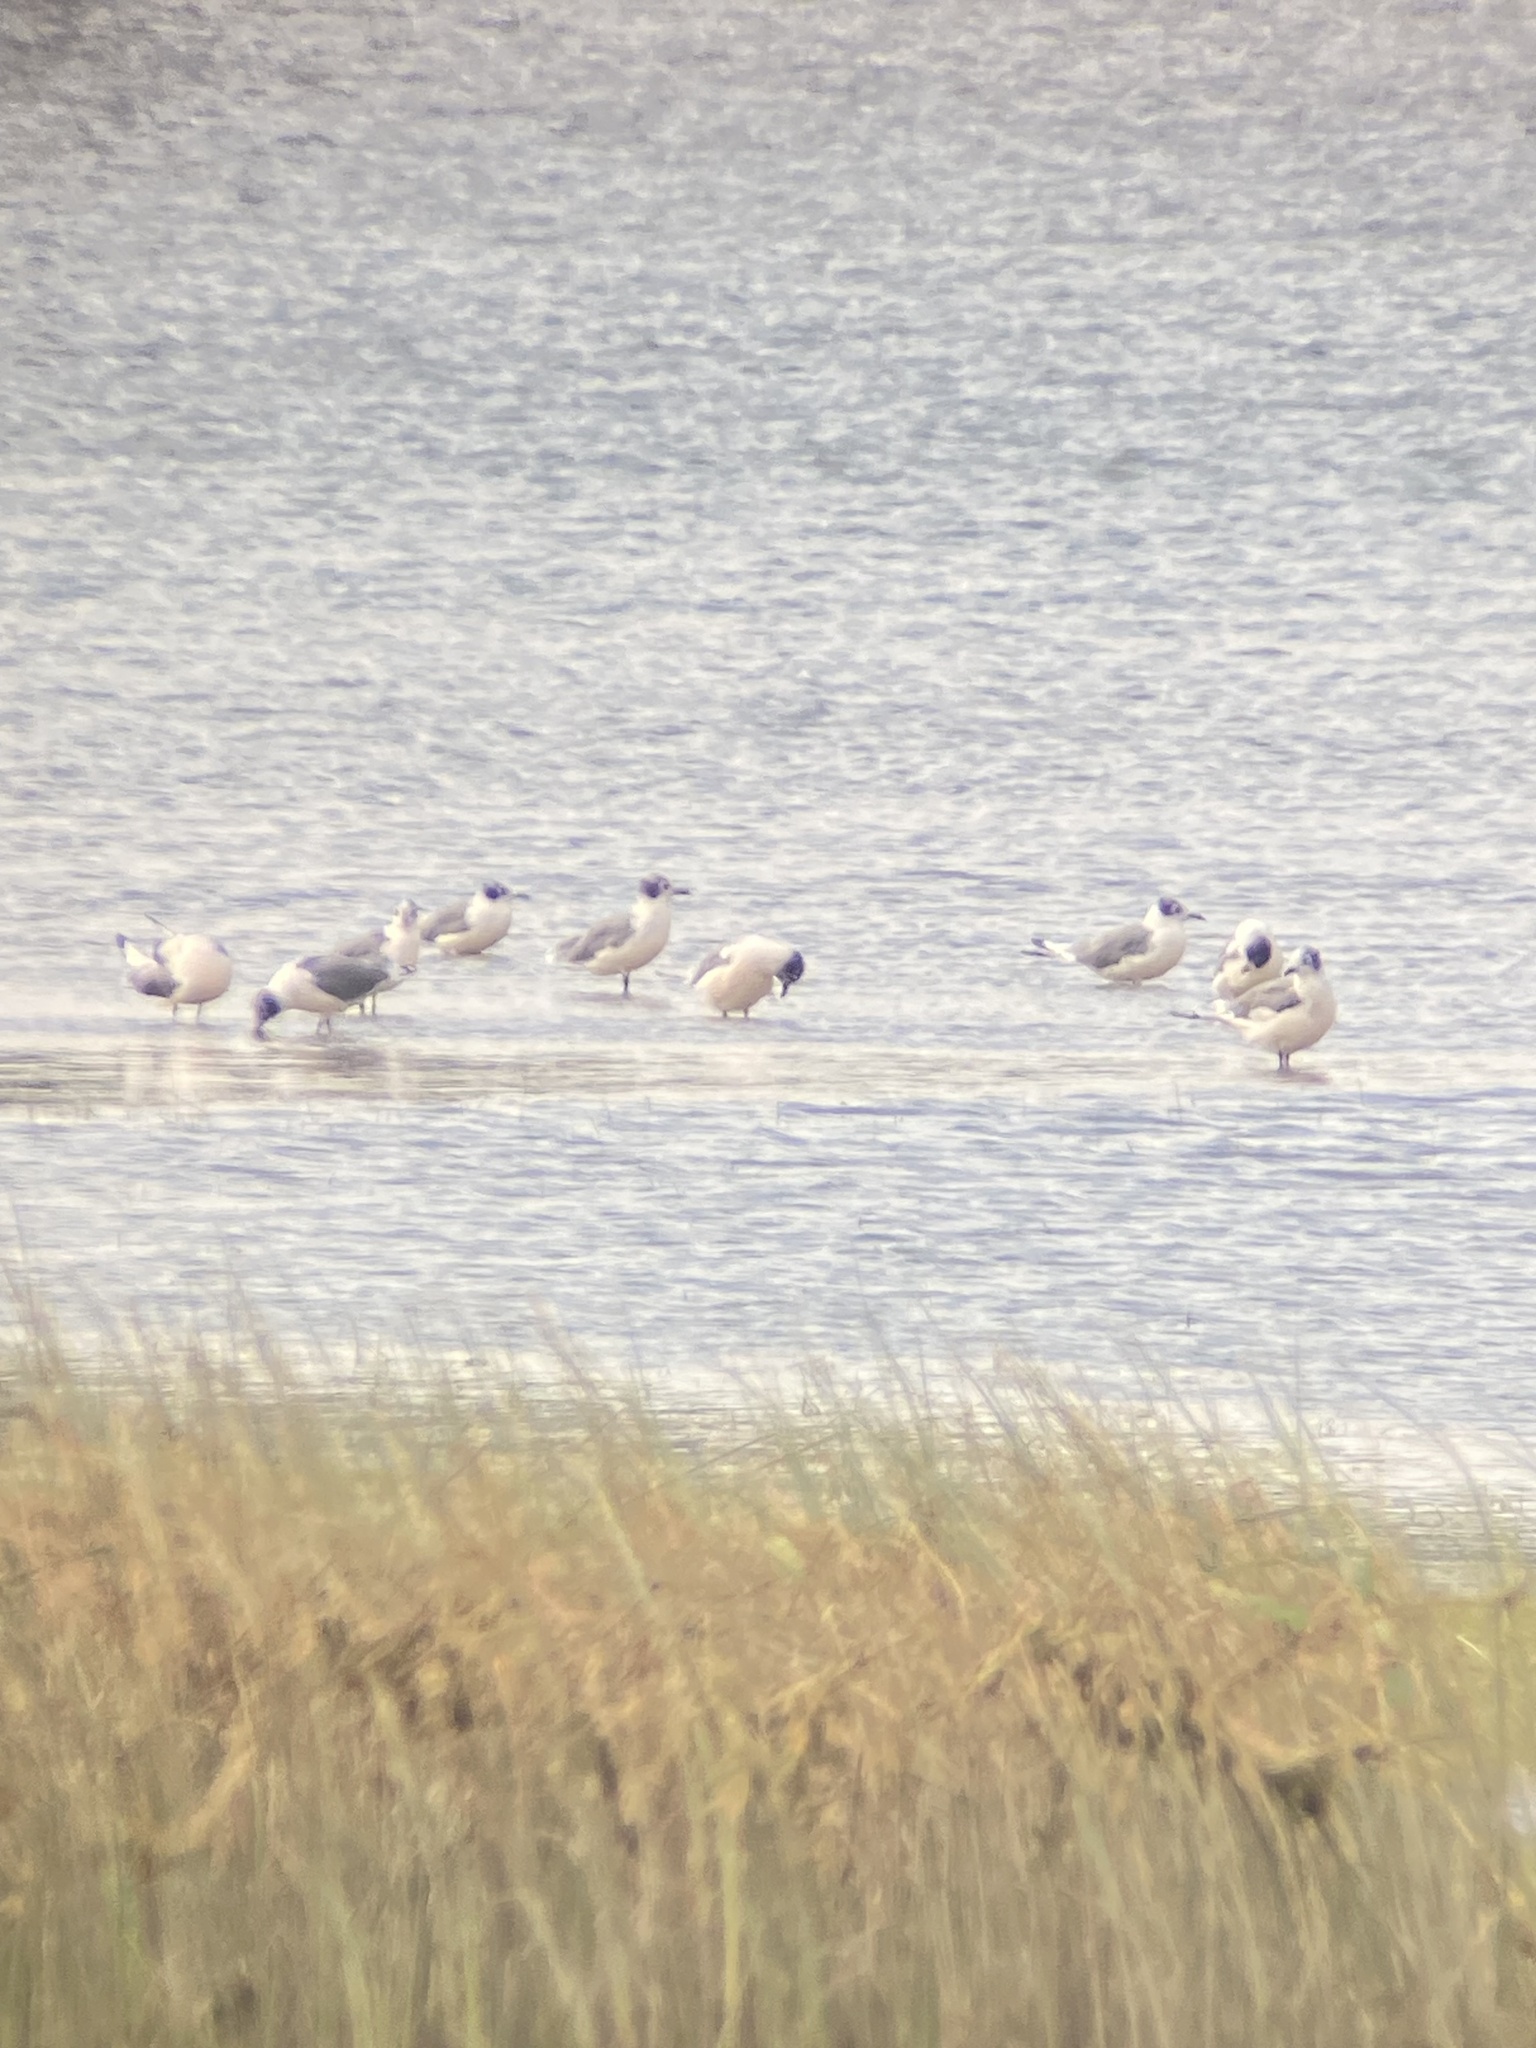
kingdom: Animalia
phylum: Chordata
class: Aves
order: Charadriiformes
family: Laridae
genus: Leucophaeus
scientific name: Leucophaeus pipixcan
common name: Franklin's gull
